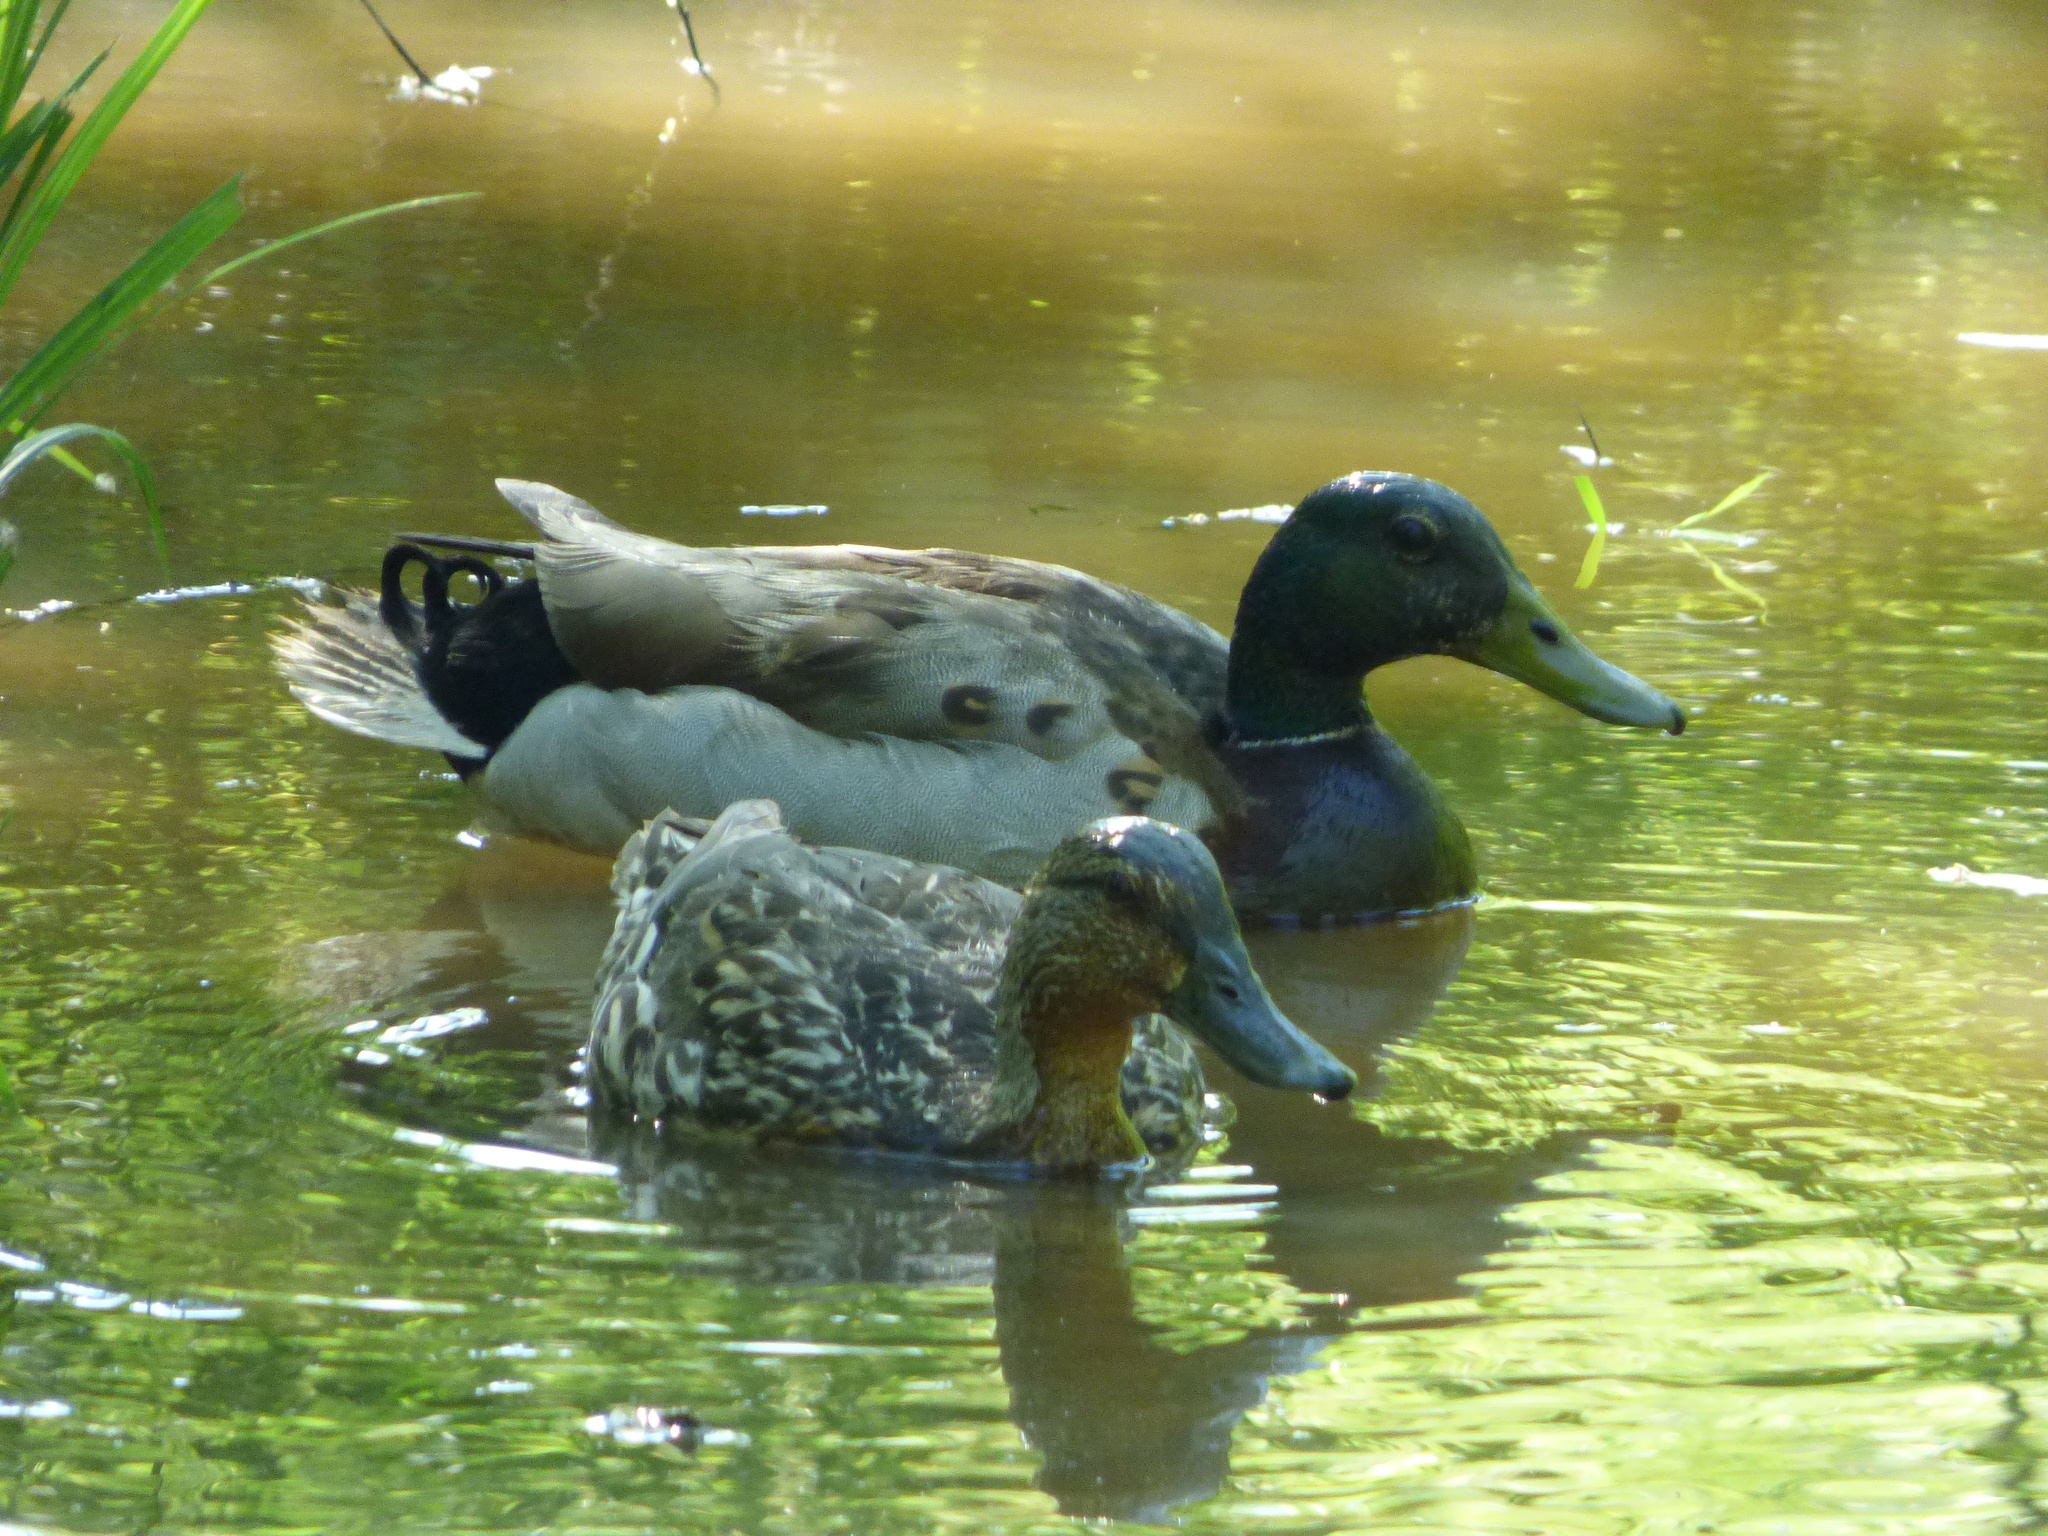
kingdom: Animalia
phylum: Chordata
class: Aves
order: Anseriformes
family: Anatidae
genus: Anas
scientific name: Anas platyrhynchos
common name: Mallard
